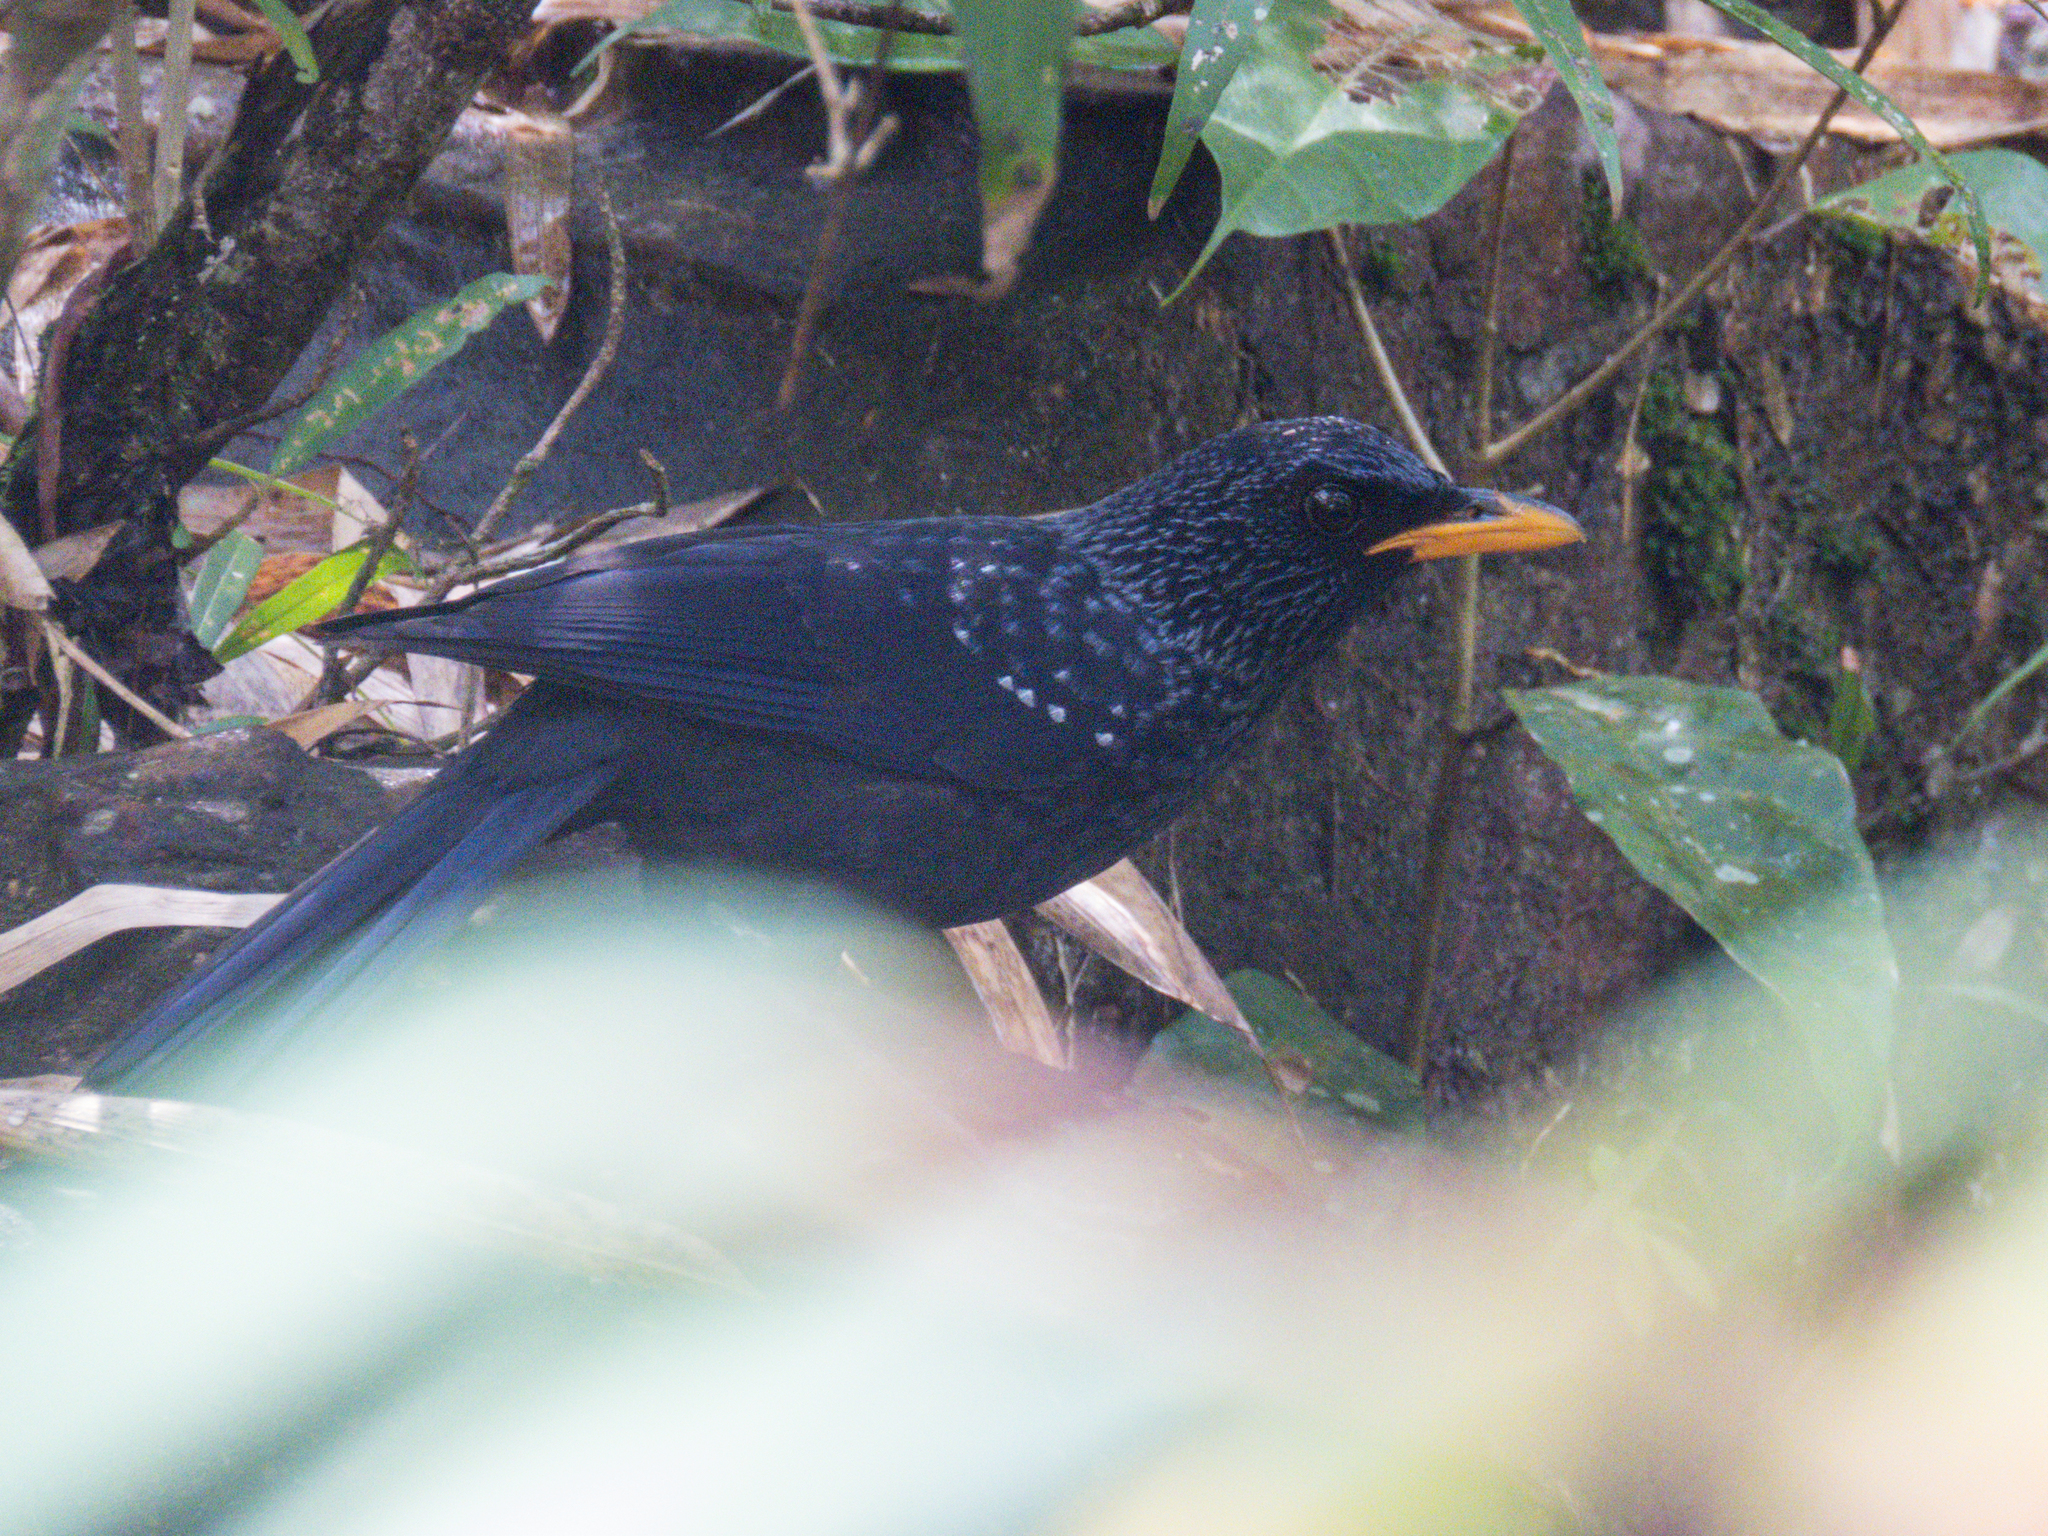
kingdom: Animalia
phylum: Chordata
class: Aves
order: Passeriformes
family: Muscicapidae
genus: Myophonus
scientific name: Myophonus caeruleus
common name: Blue whistling-thrush
